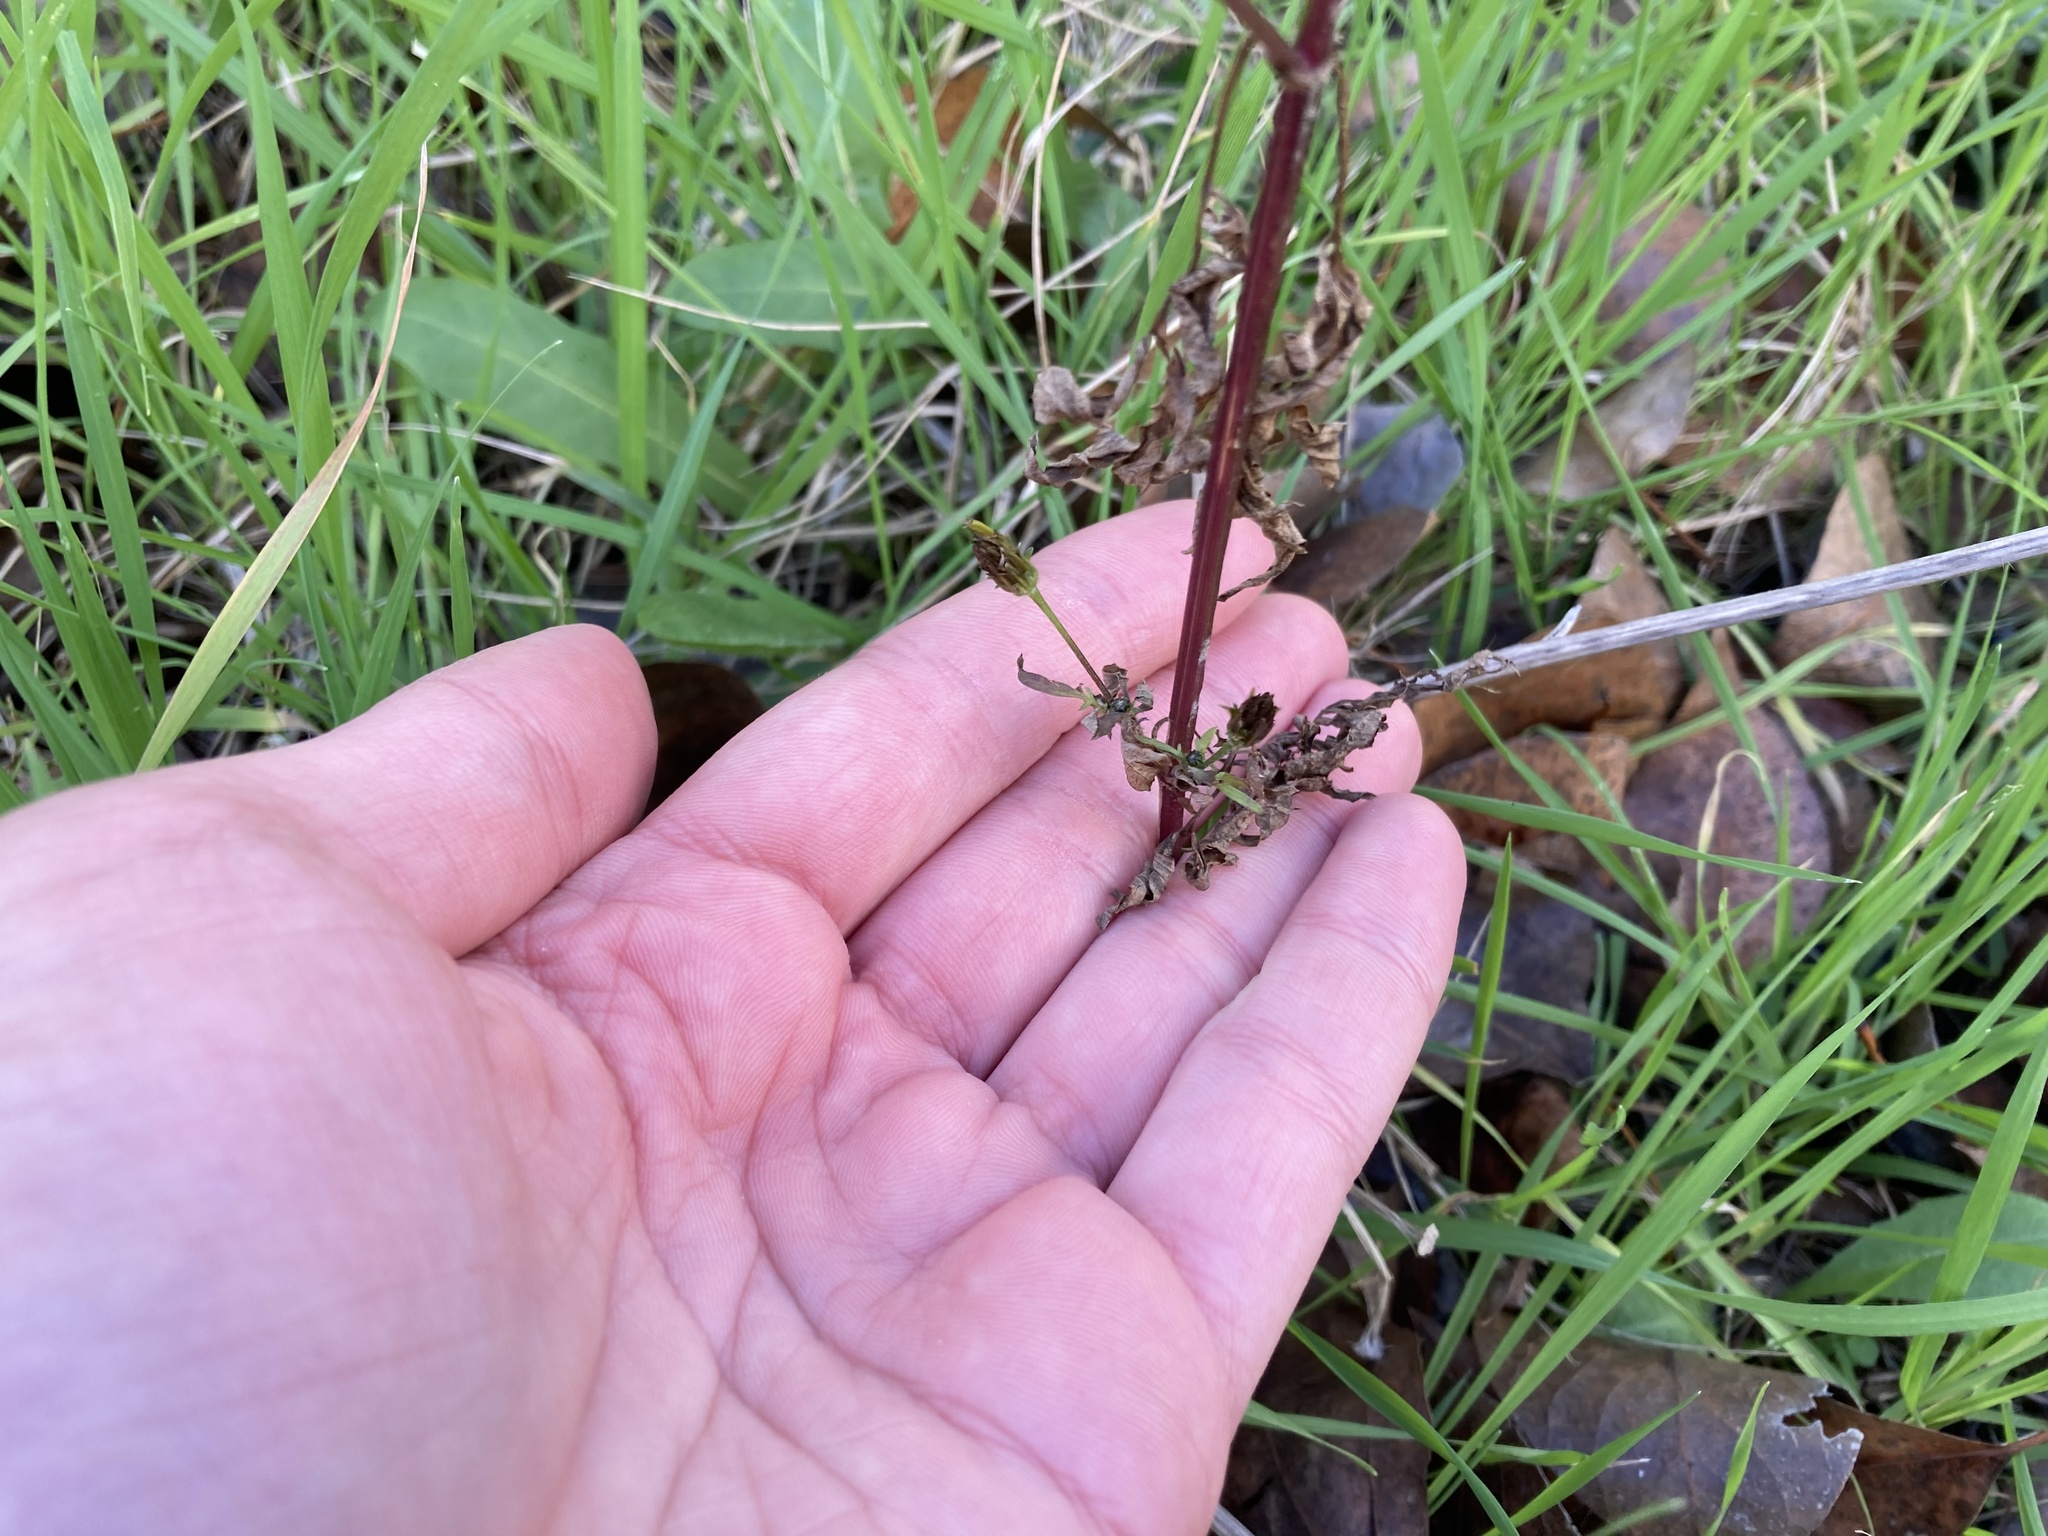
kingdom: Plantae
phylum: Tracheophyta
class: Magnoliopsida
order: Asterales
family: Asteraceae
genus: Bidens
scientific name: Bidens subalternans
